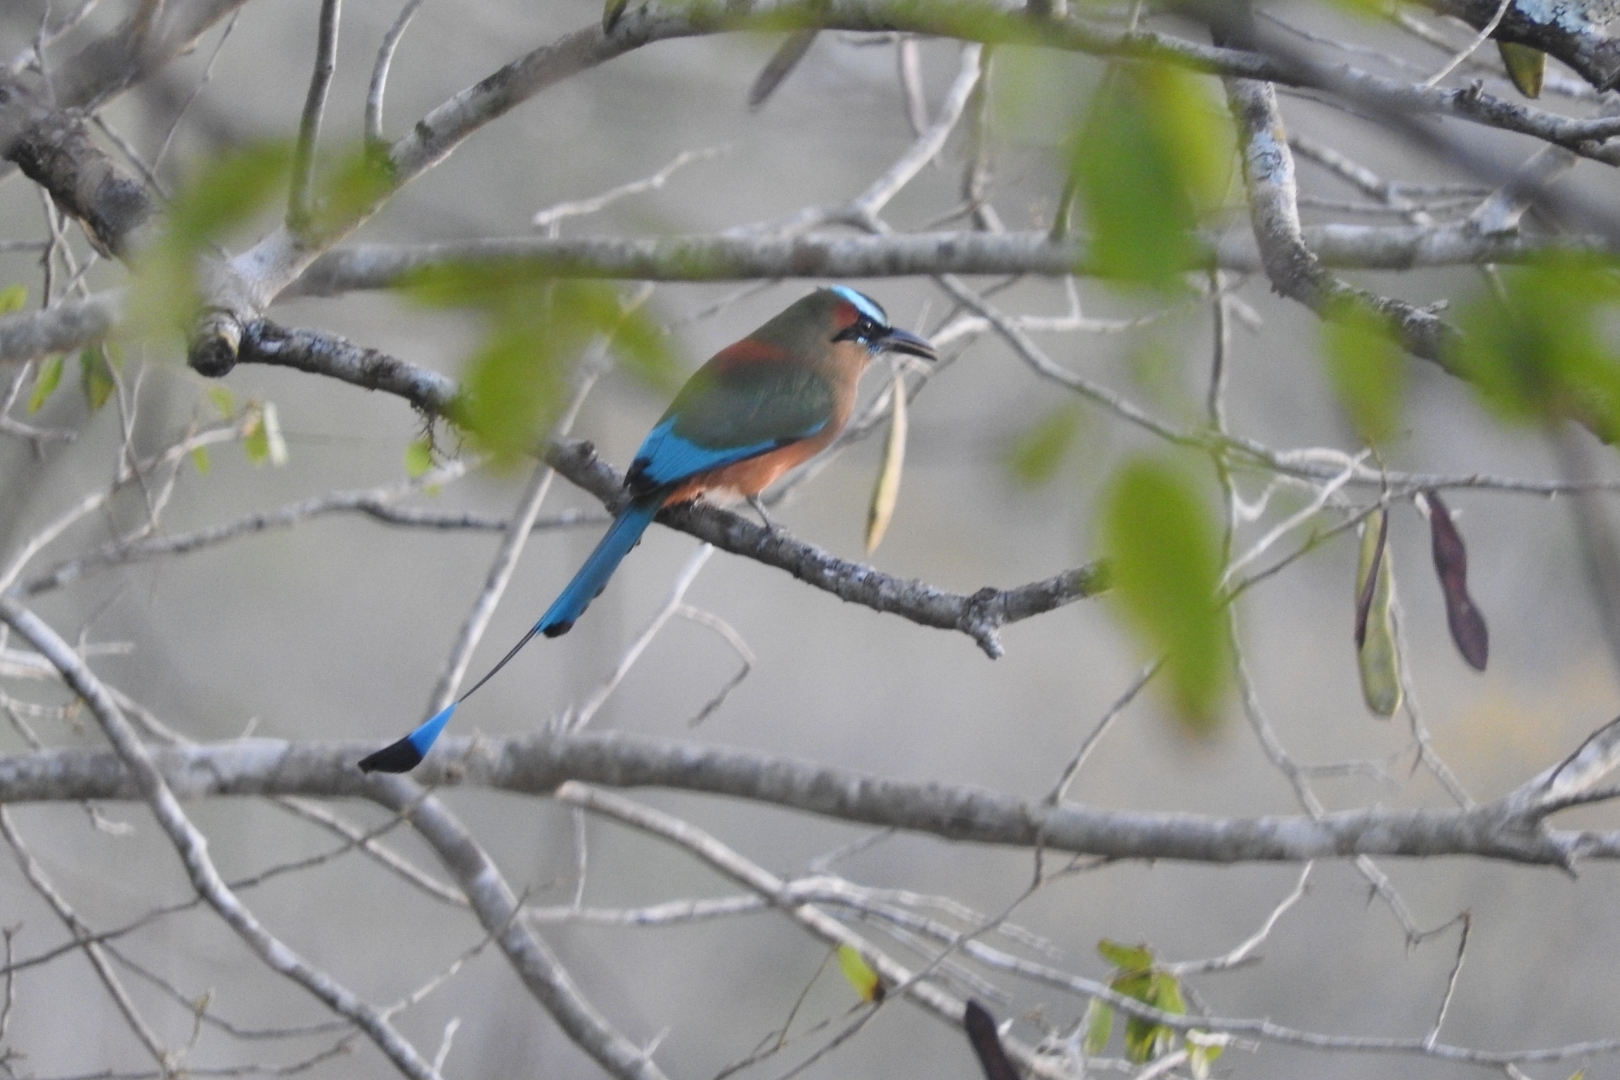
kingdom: Animalia
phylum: Chordata
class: Aves
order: Coraciiformes
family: Momotidae
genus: Eumomota
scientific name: Eumomota superciliosa
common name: Turquoise-browed motmot
